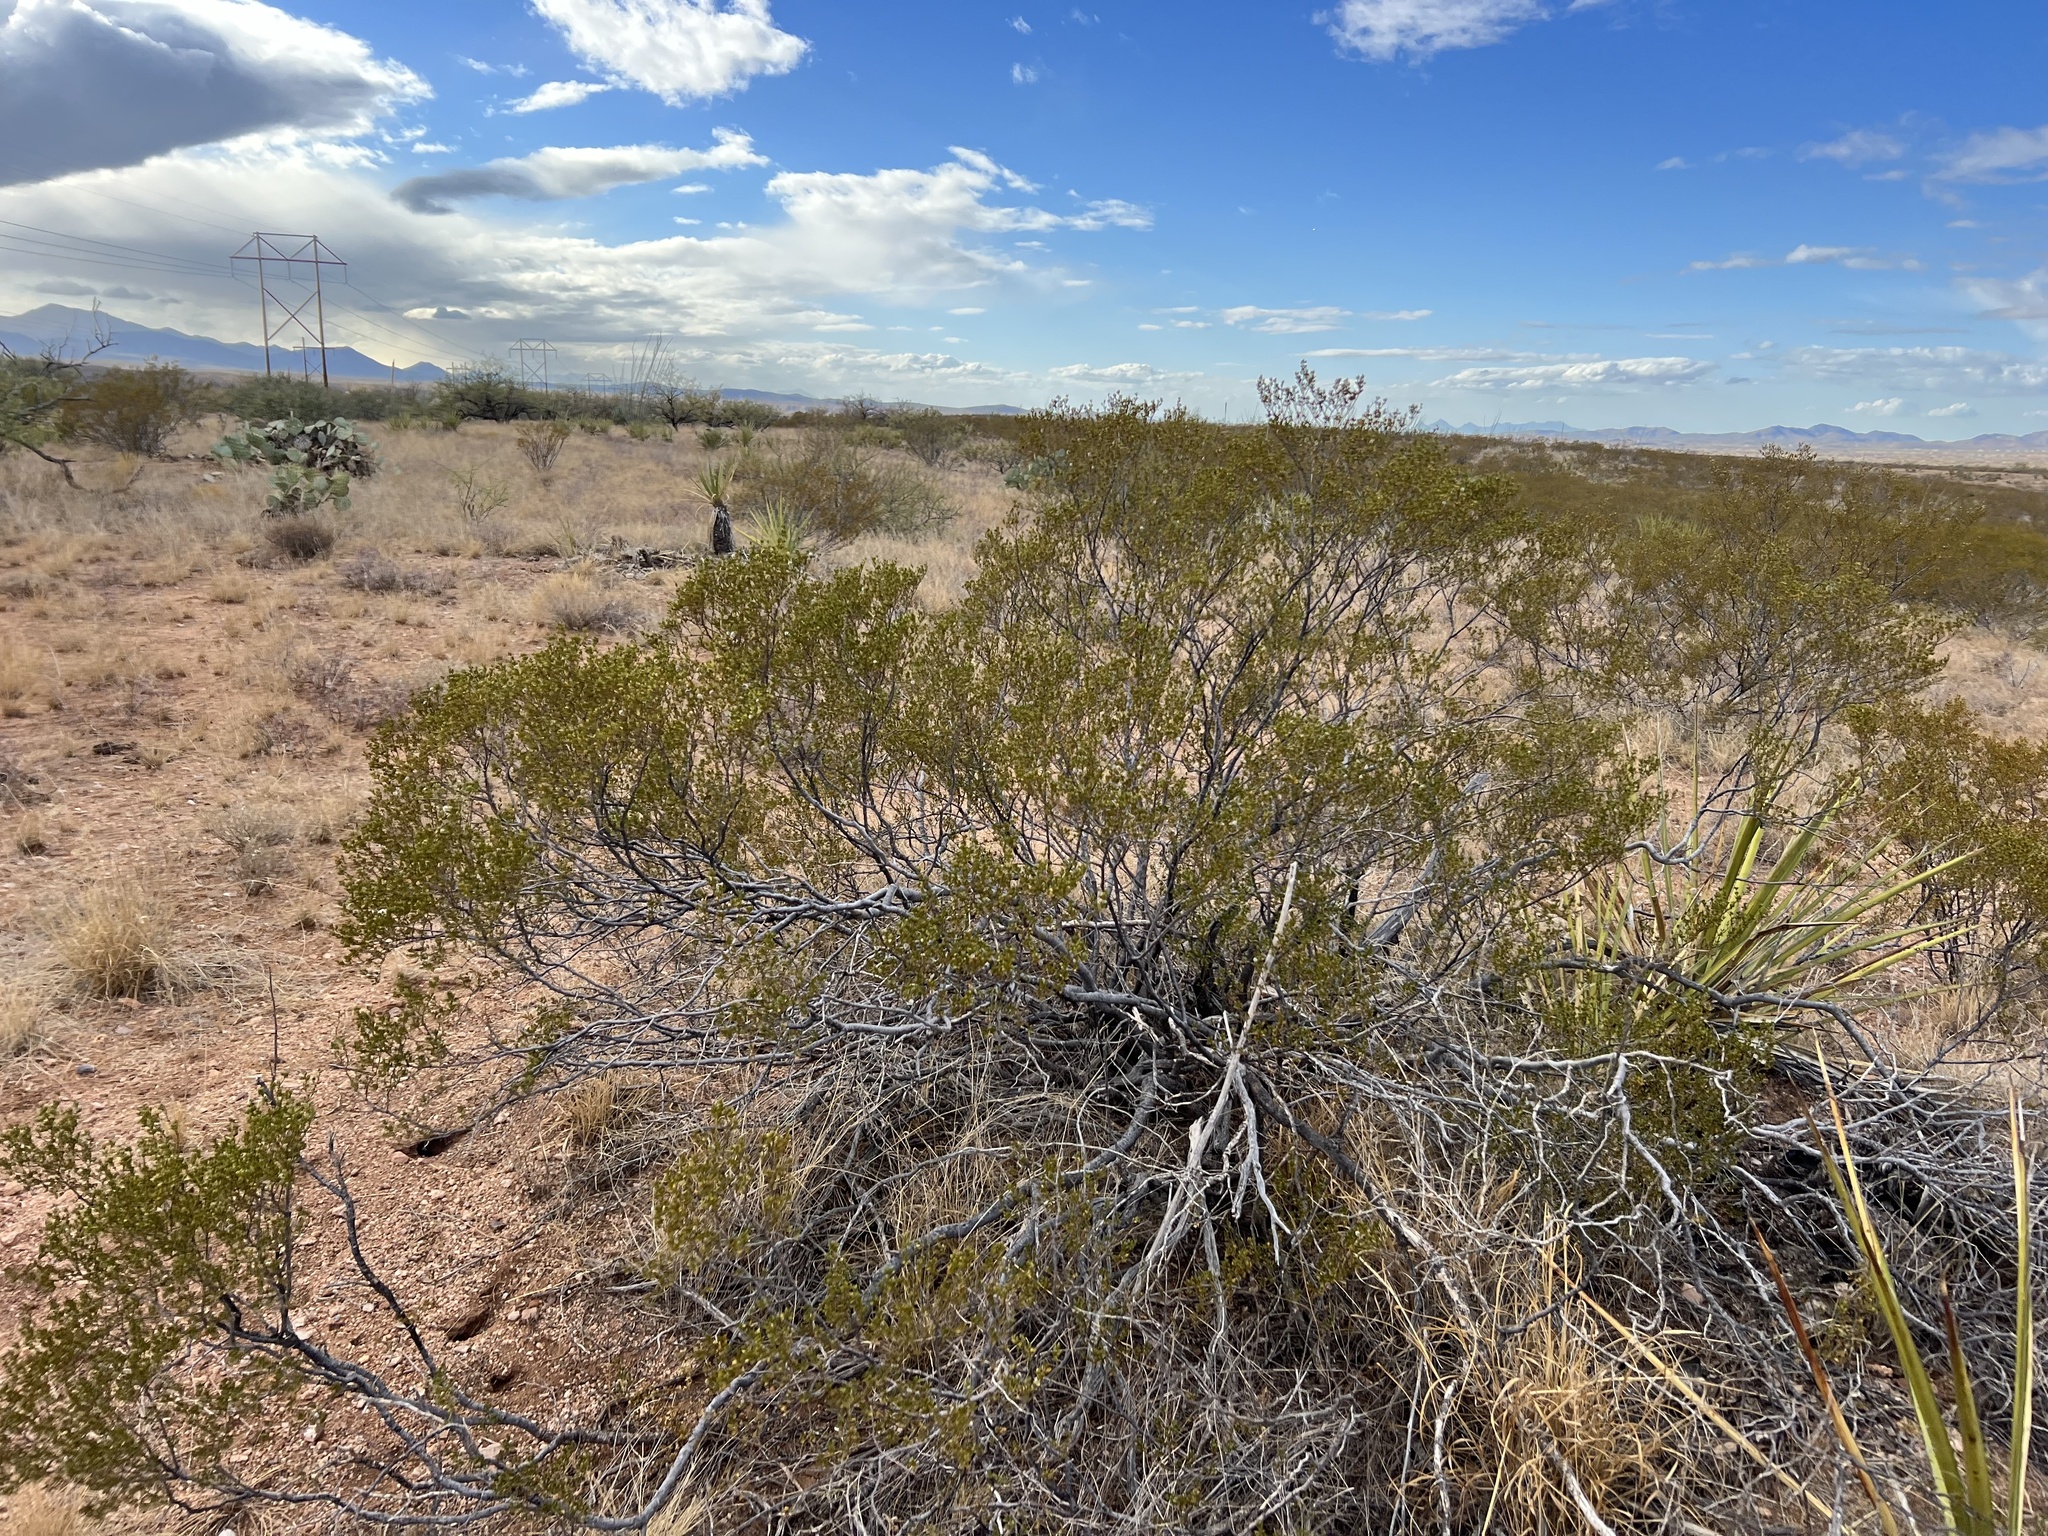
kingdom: Plantae
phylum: Tracheophyta
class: Magnoliopsida
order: Zygophyllales
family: Zygophyllaceae
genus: Larrea
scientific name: Larrea tridentata
